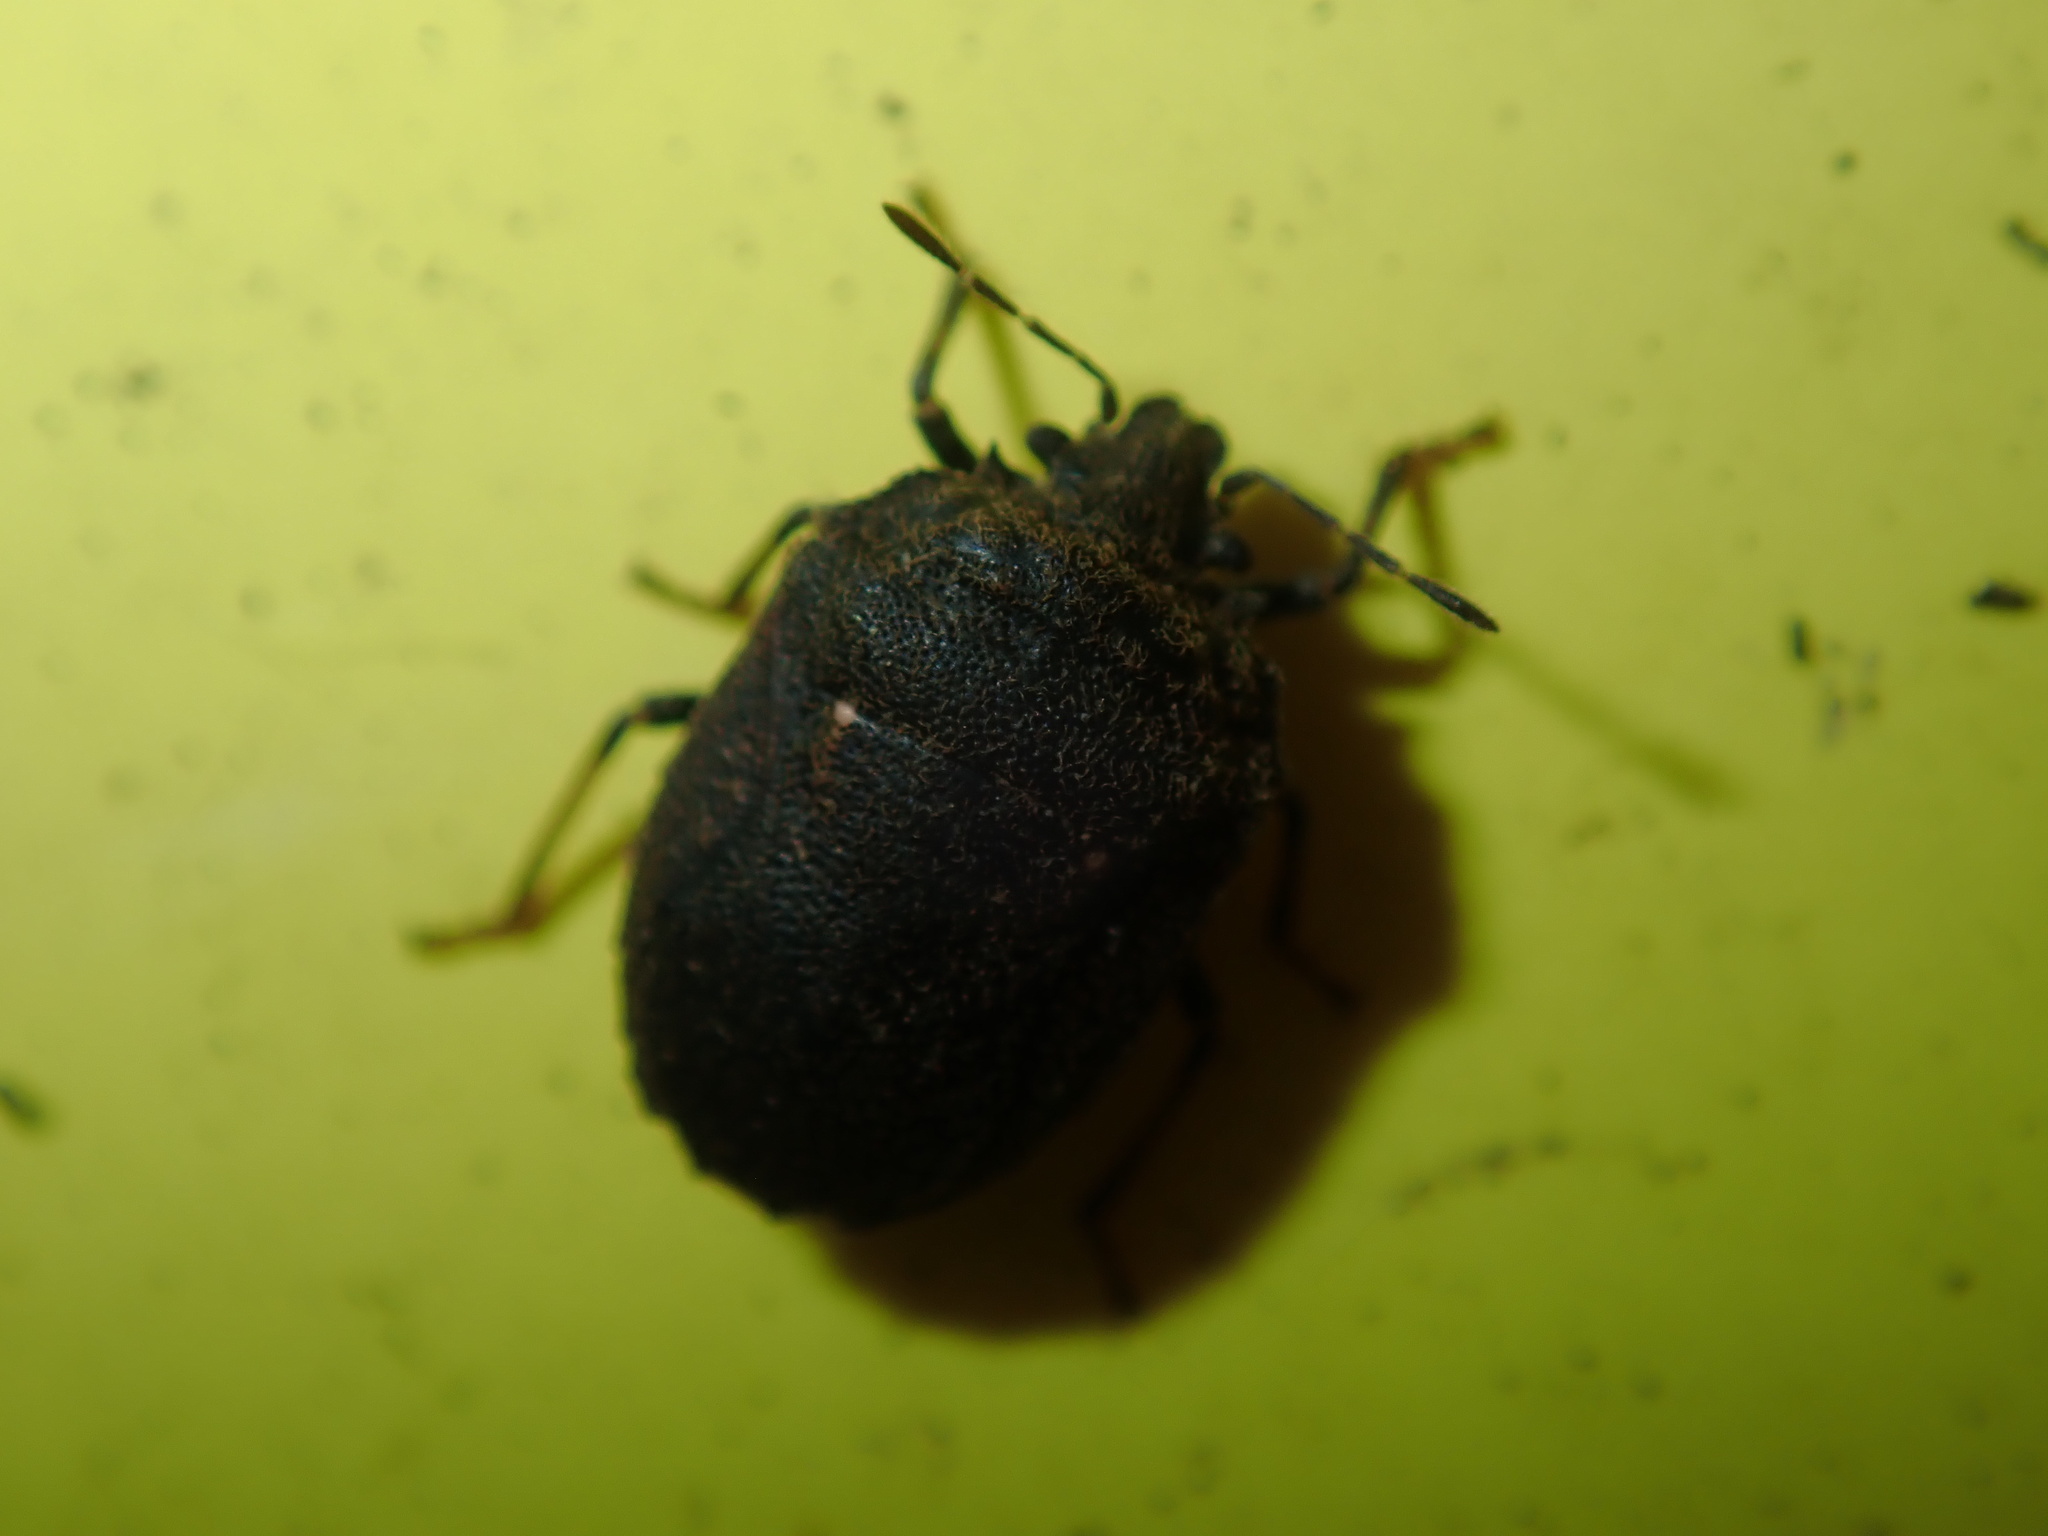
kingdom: Animalia
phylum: Arthropoda
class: Insecta
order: Hemiptera
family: Pentatomidae
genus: Coracanthella
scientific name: Coracanthella geophila
